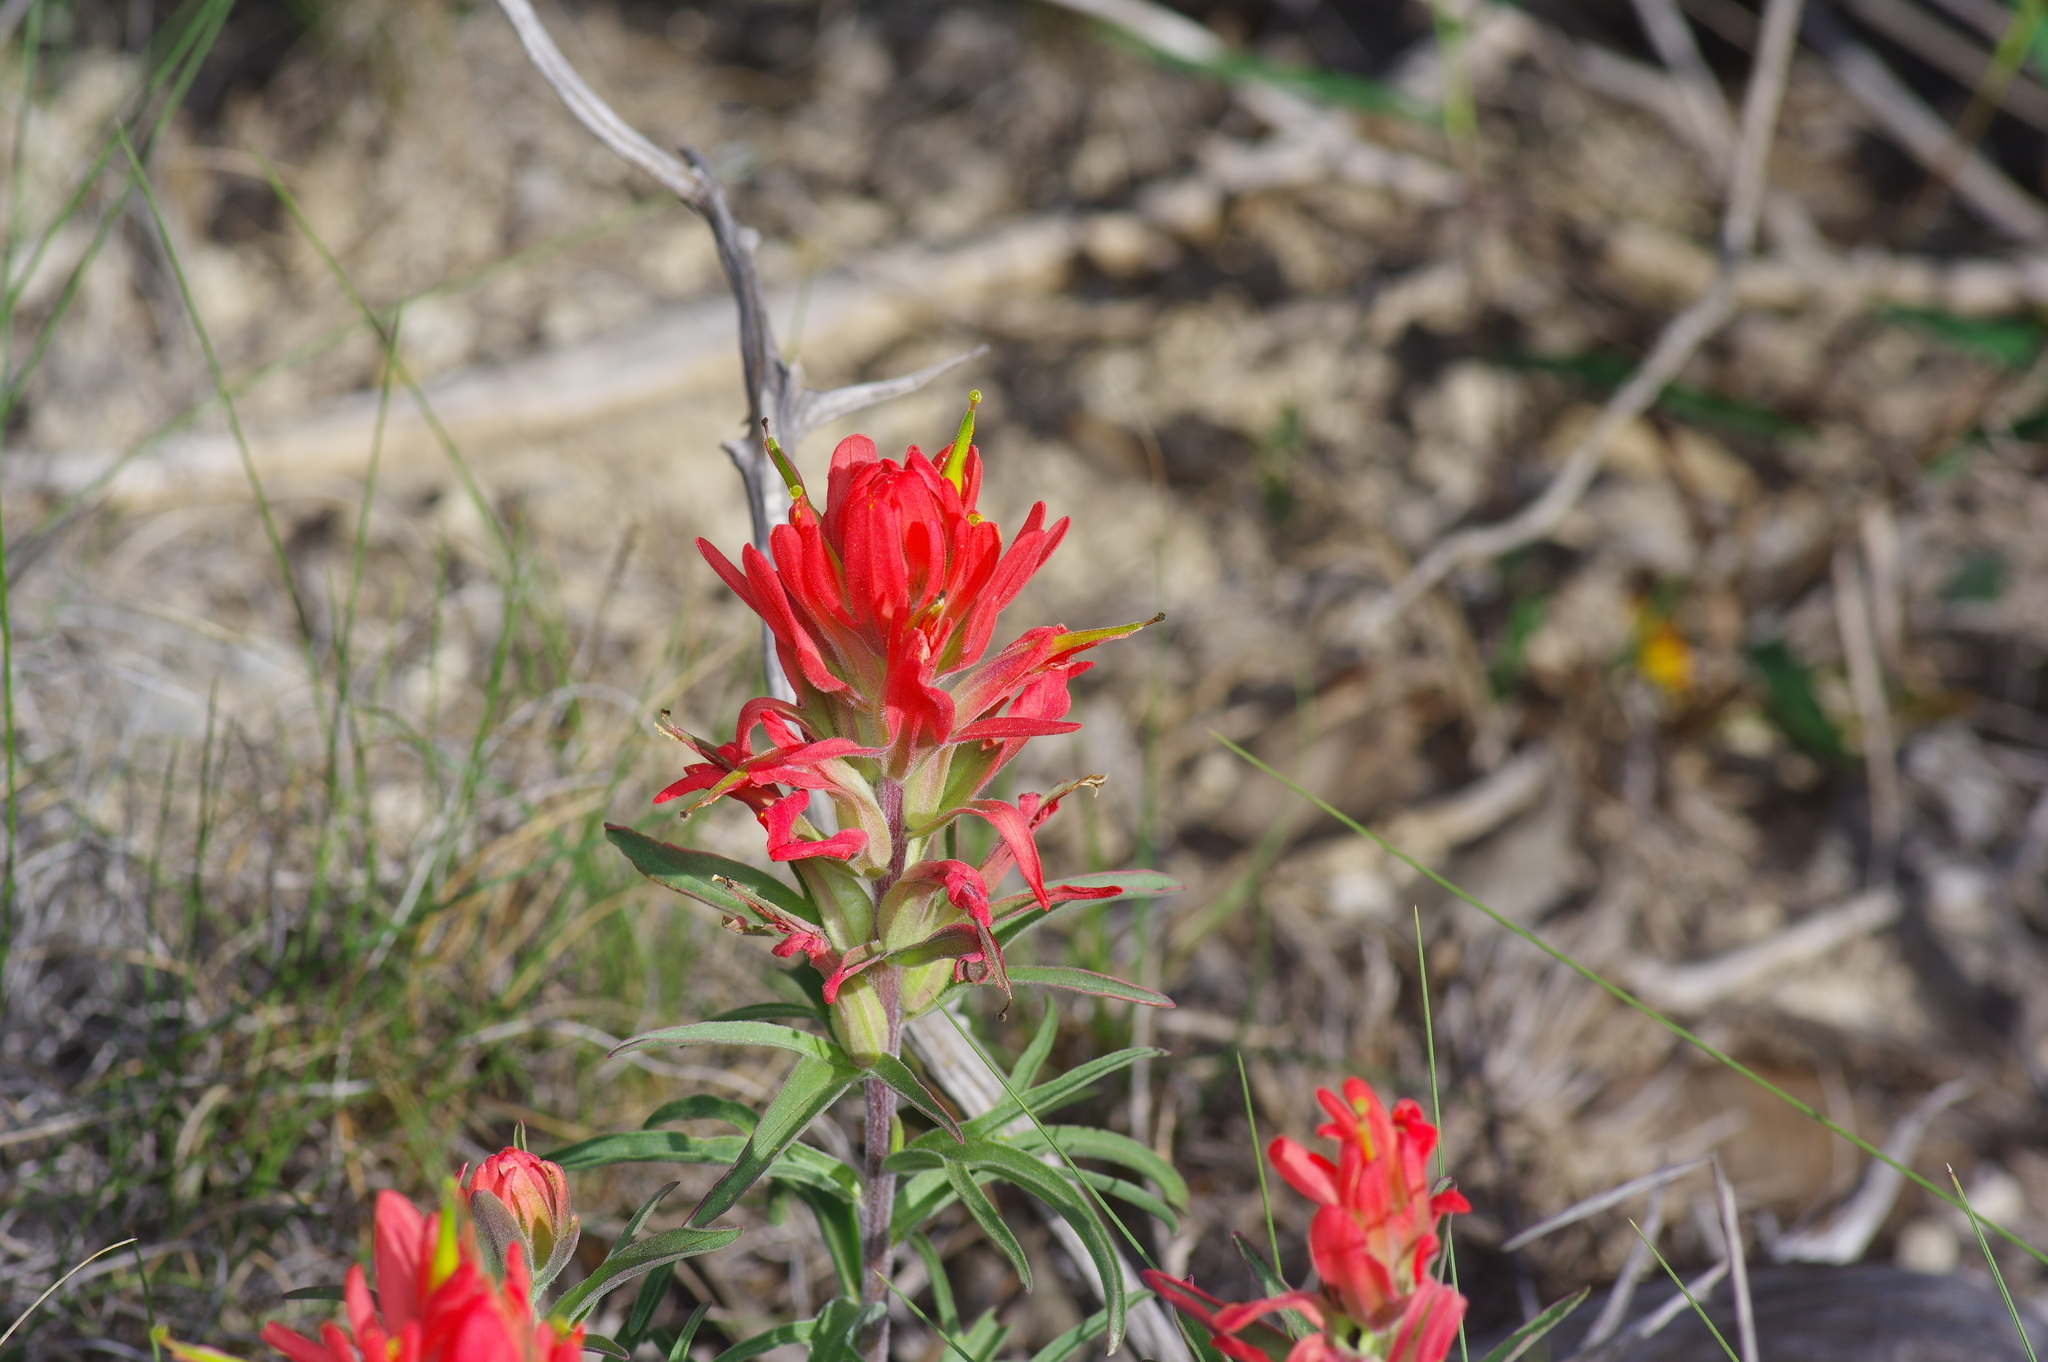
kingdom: Plantae
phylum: Tracheophyta
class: Magnoliopsida
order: Lamiales
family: Orobanchaceae
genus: Castilleja
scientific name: Castilleja lindheimeri
